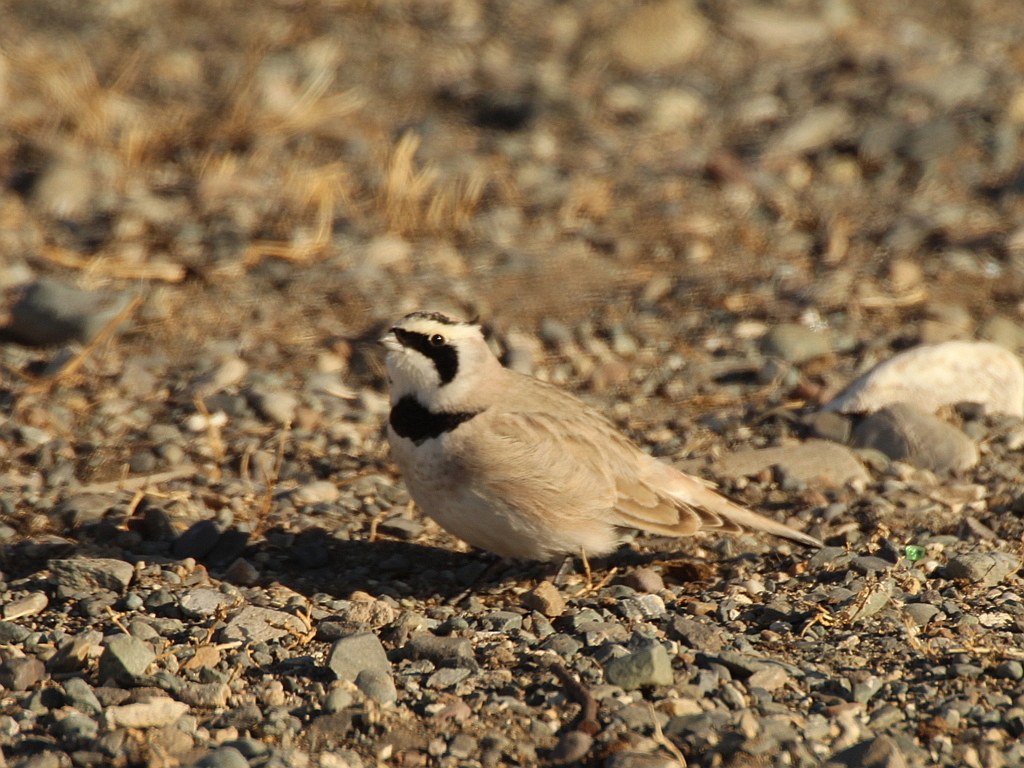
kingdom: Animalia
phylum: Chordata
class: Aves
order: Passeriformes
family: Alaudidae
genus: Eremophila
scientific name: Eremophila alpestris
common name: Horned lark
